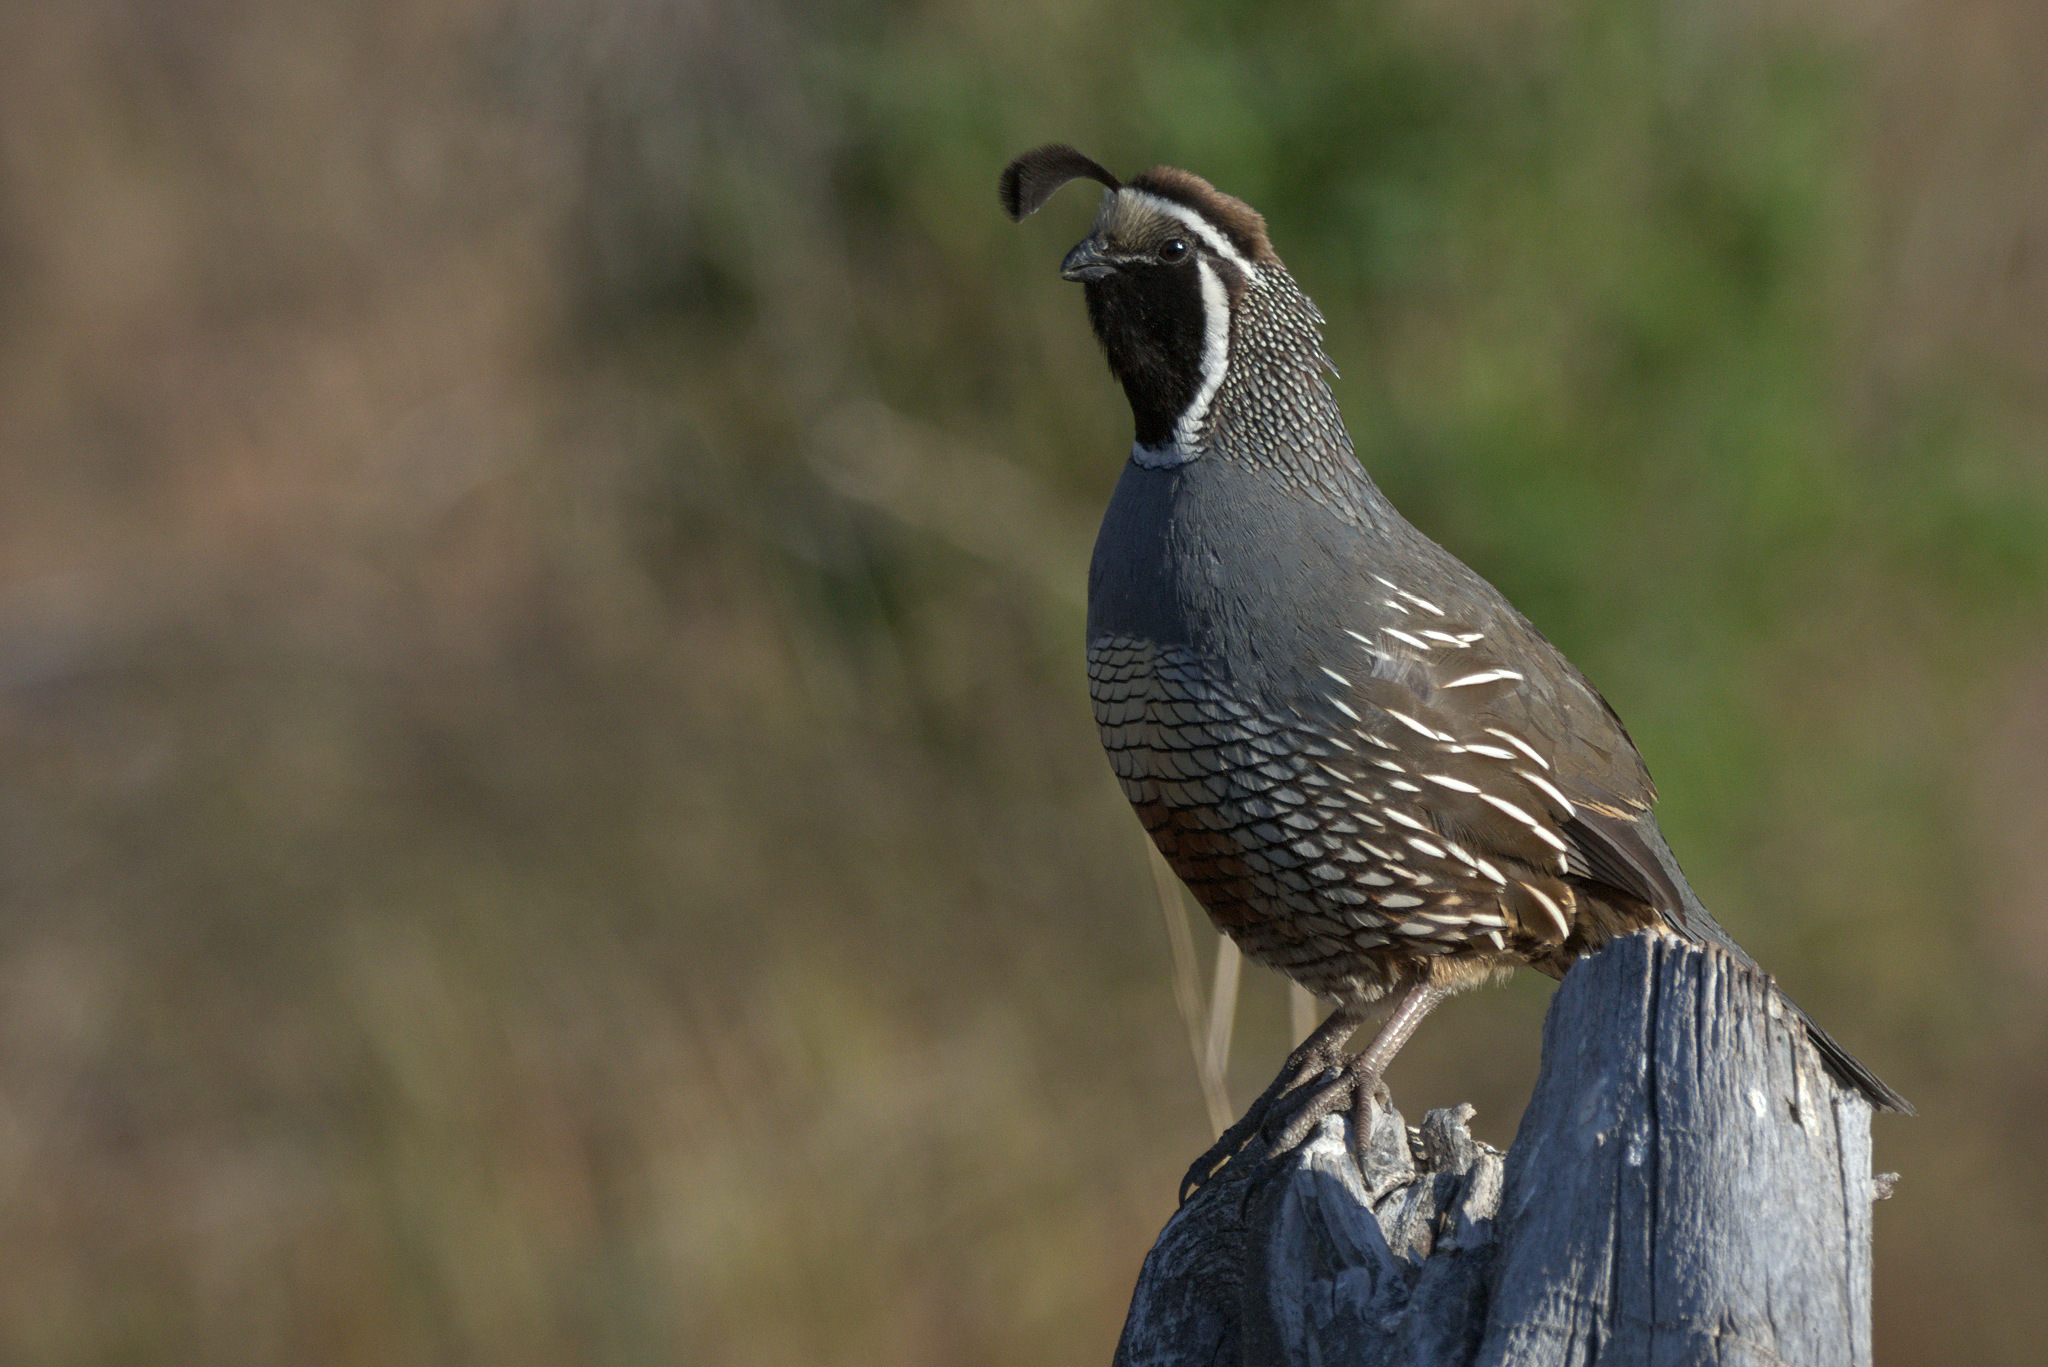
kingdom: Animalia
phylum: Chordata
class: Aves
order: Galliformes
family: Odontophoridae
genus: Callipepla
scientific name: Callipepla californica
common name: California quail
